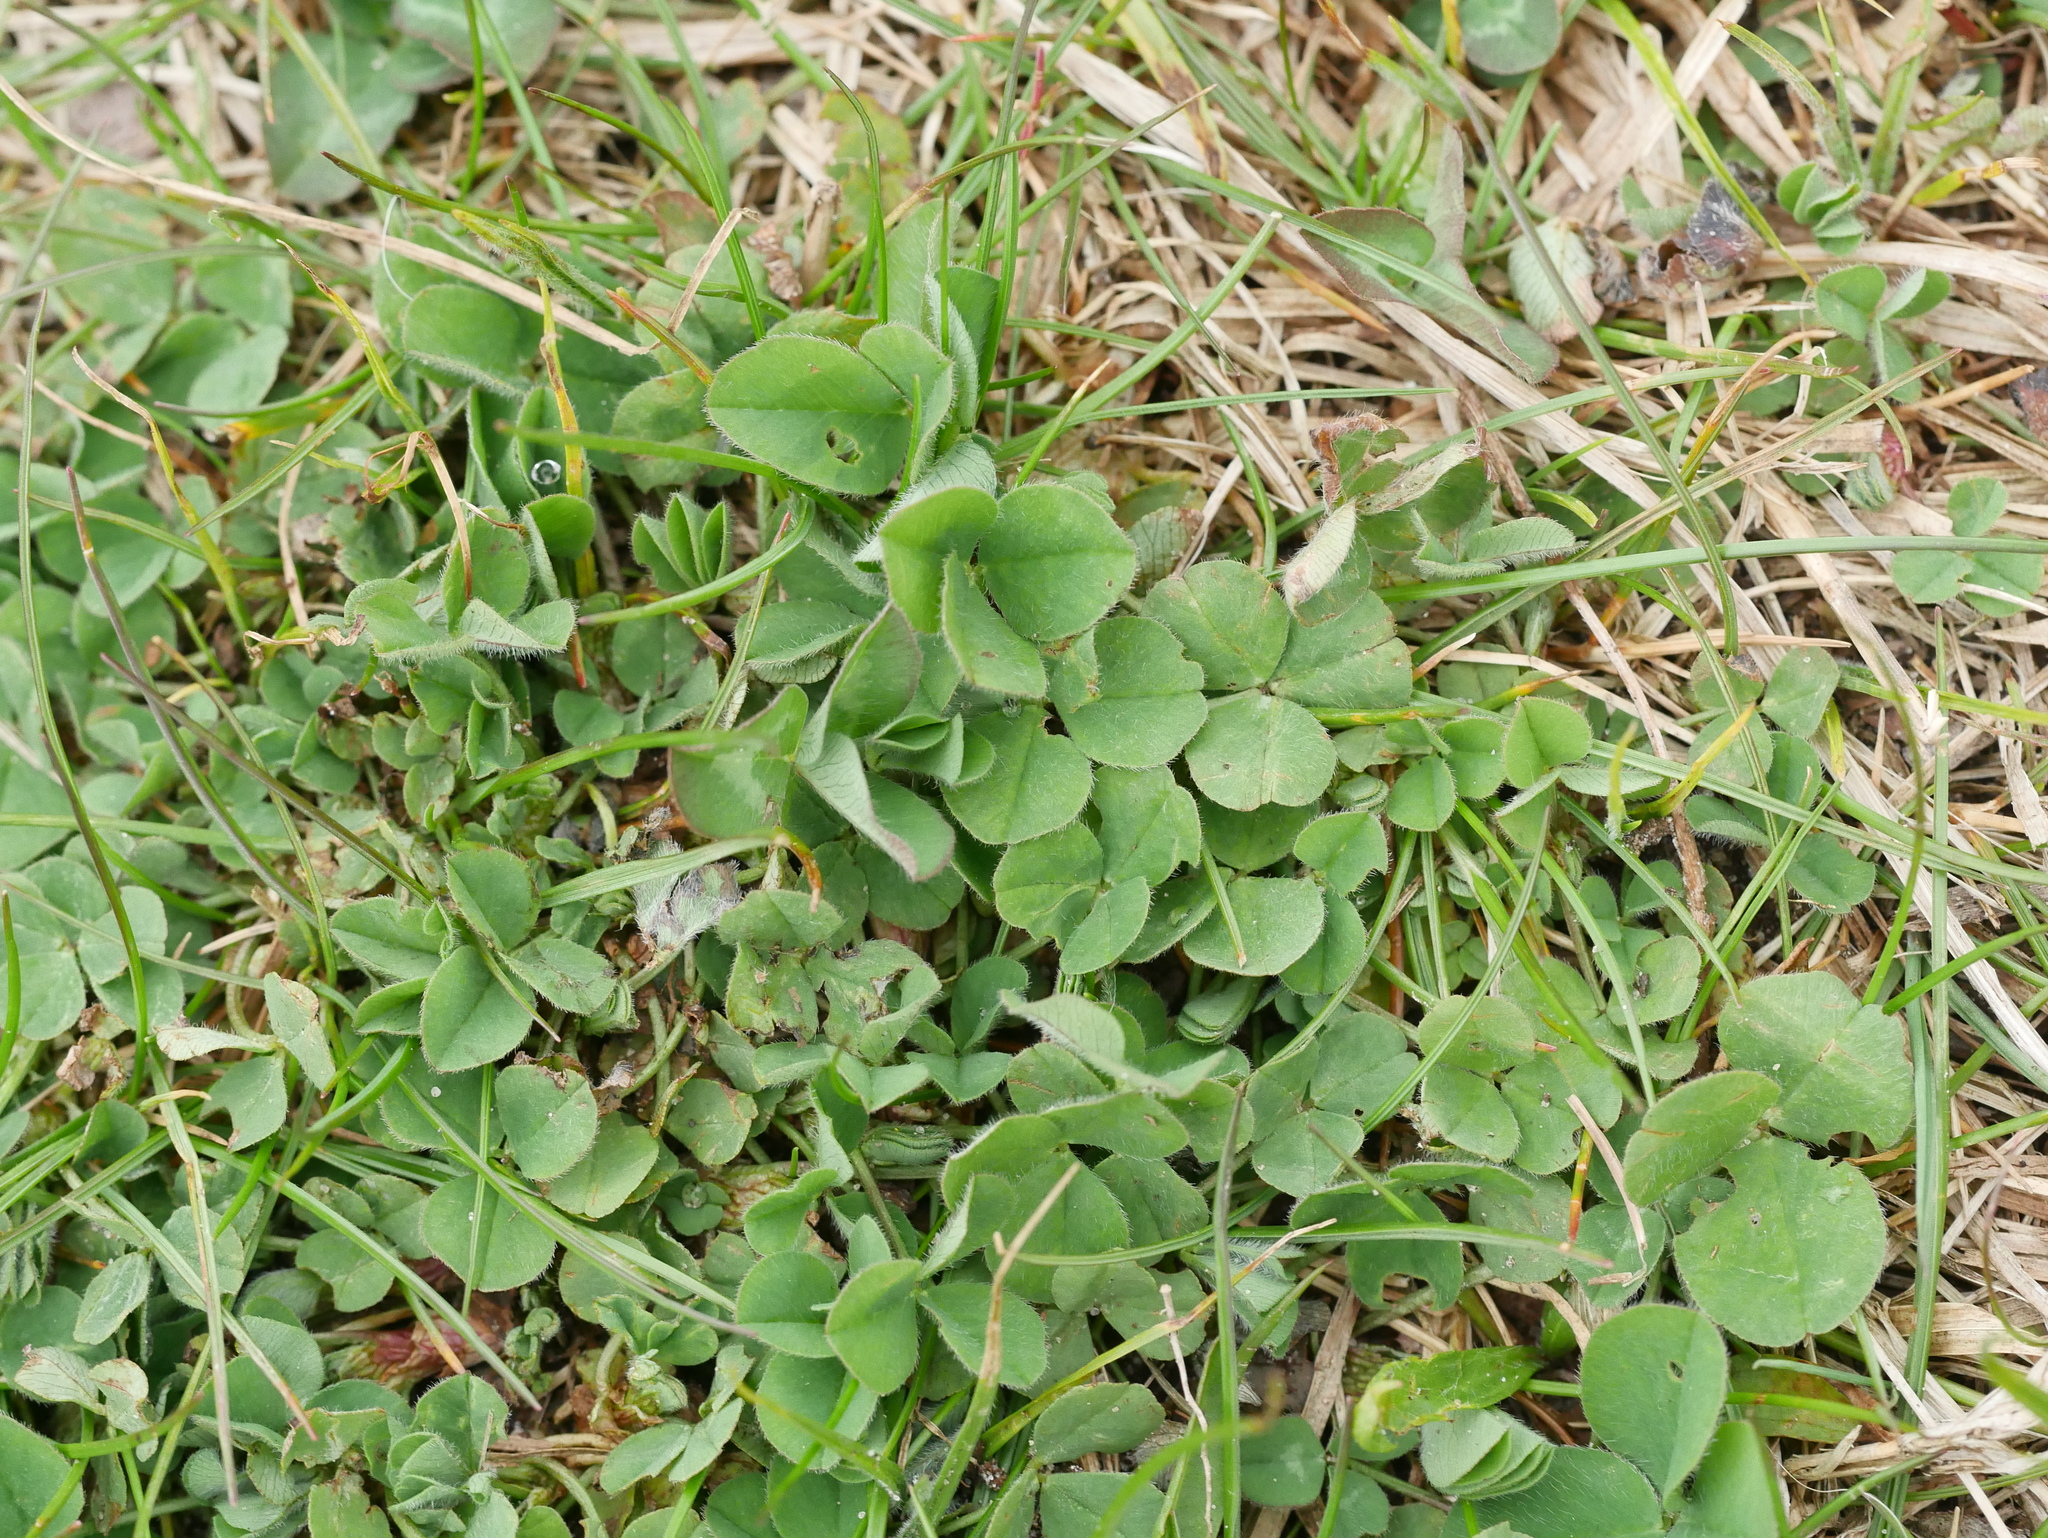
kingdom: Plantae
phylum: Tracheophyta
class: Magnoliopsida
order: Fabales
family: Fabaceae
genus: Trifolium
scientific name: Trifolium pratense
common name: Red clover
